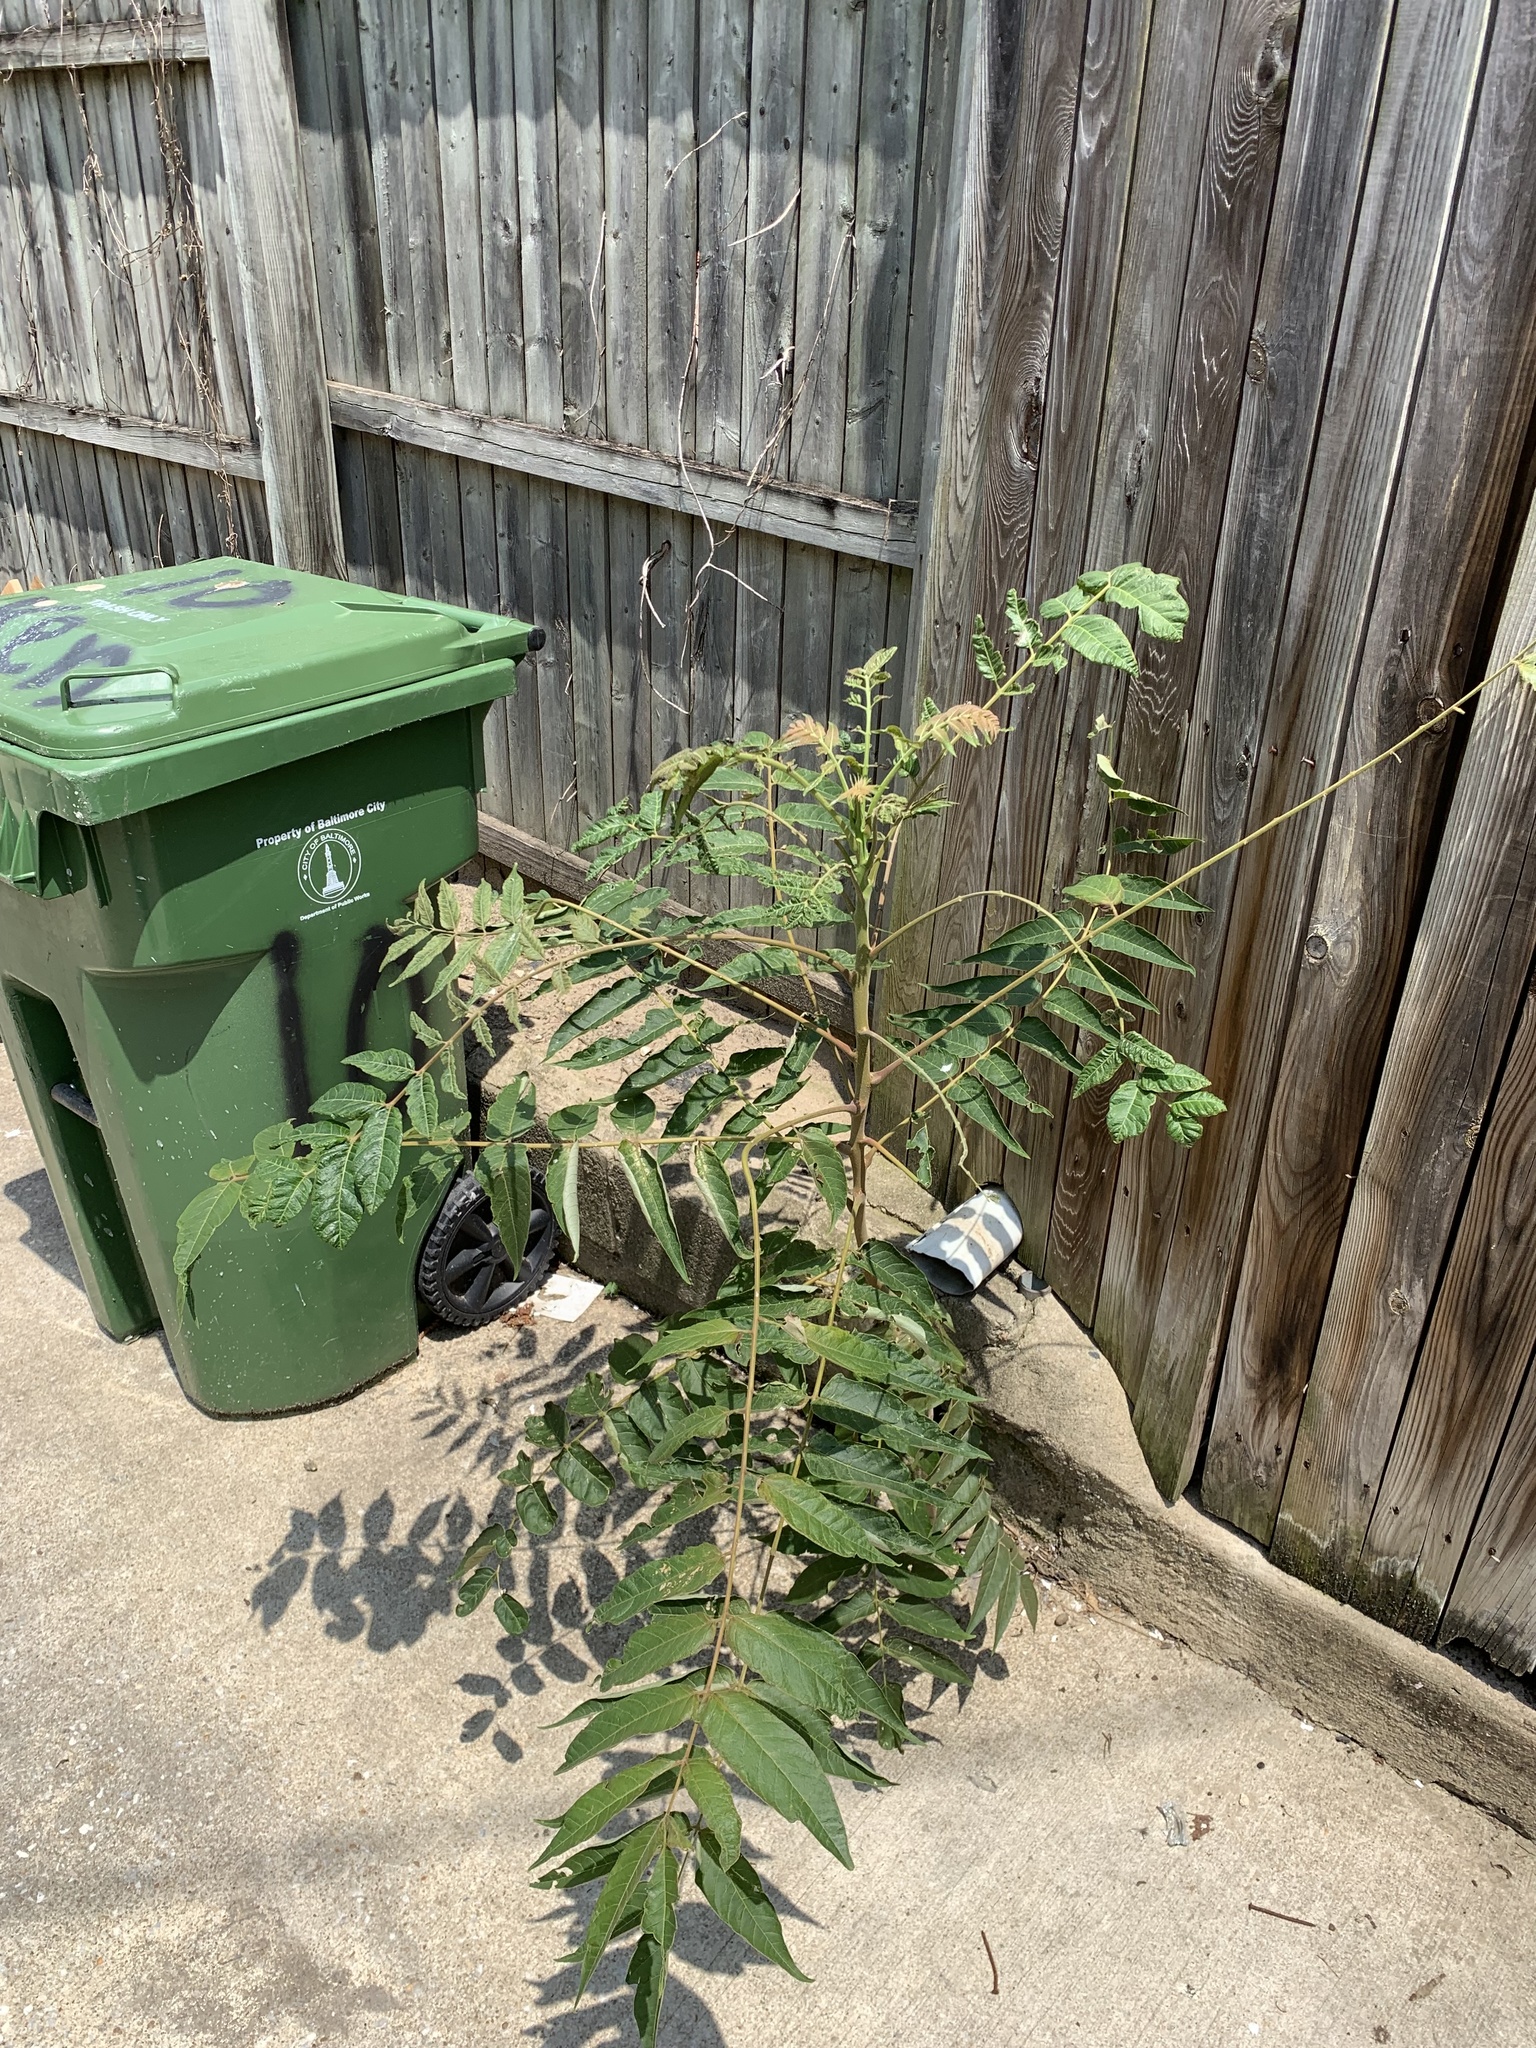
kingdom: Plantae
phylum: Tracheophyta
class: Magnoliopsida
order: Sapindales
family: Simaroubaceae
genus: Ailanthus
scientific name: Ailanthus altissima
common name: Tree-of-heaven
